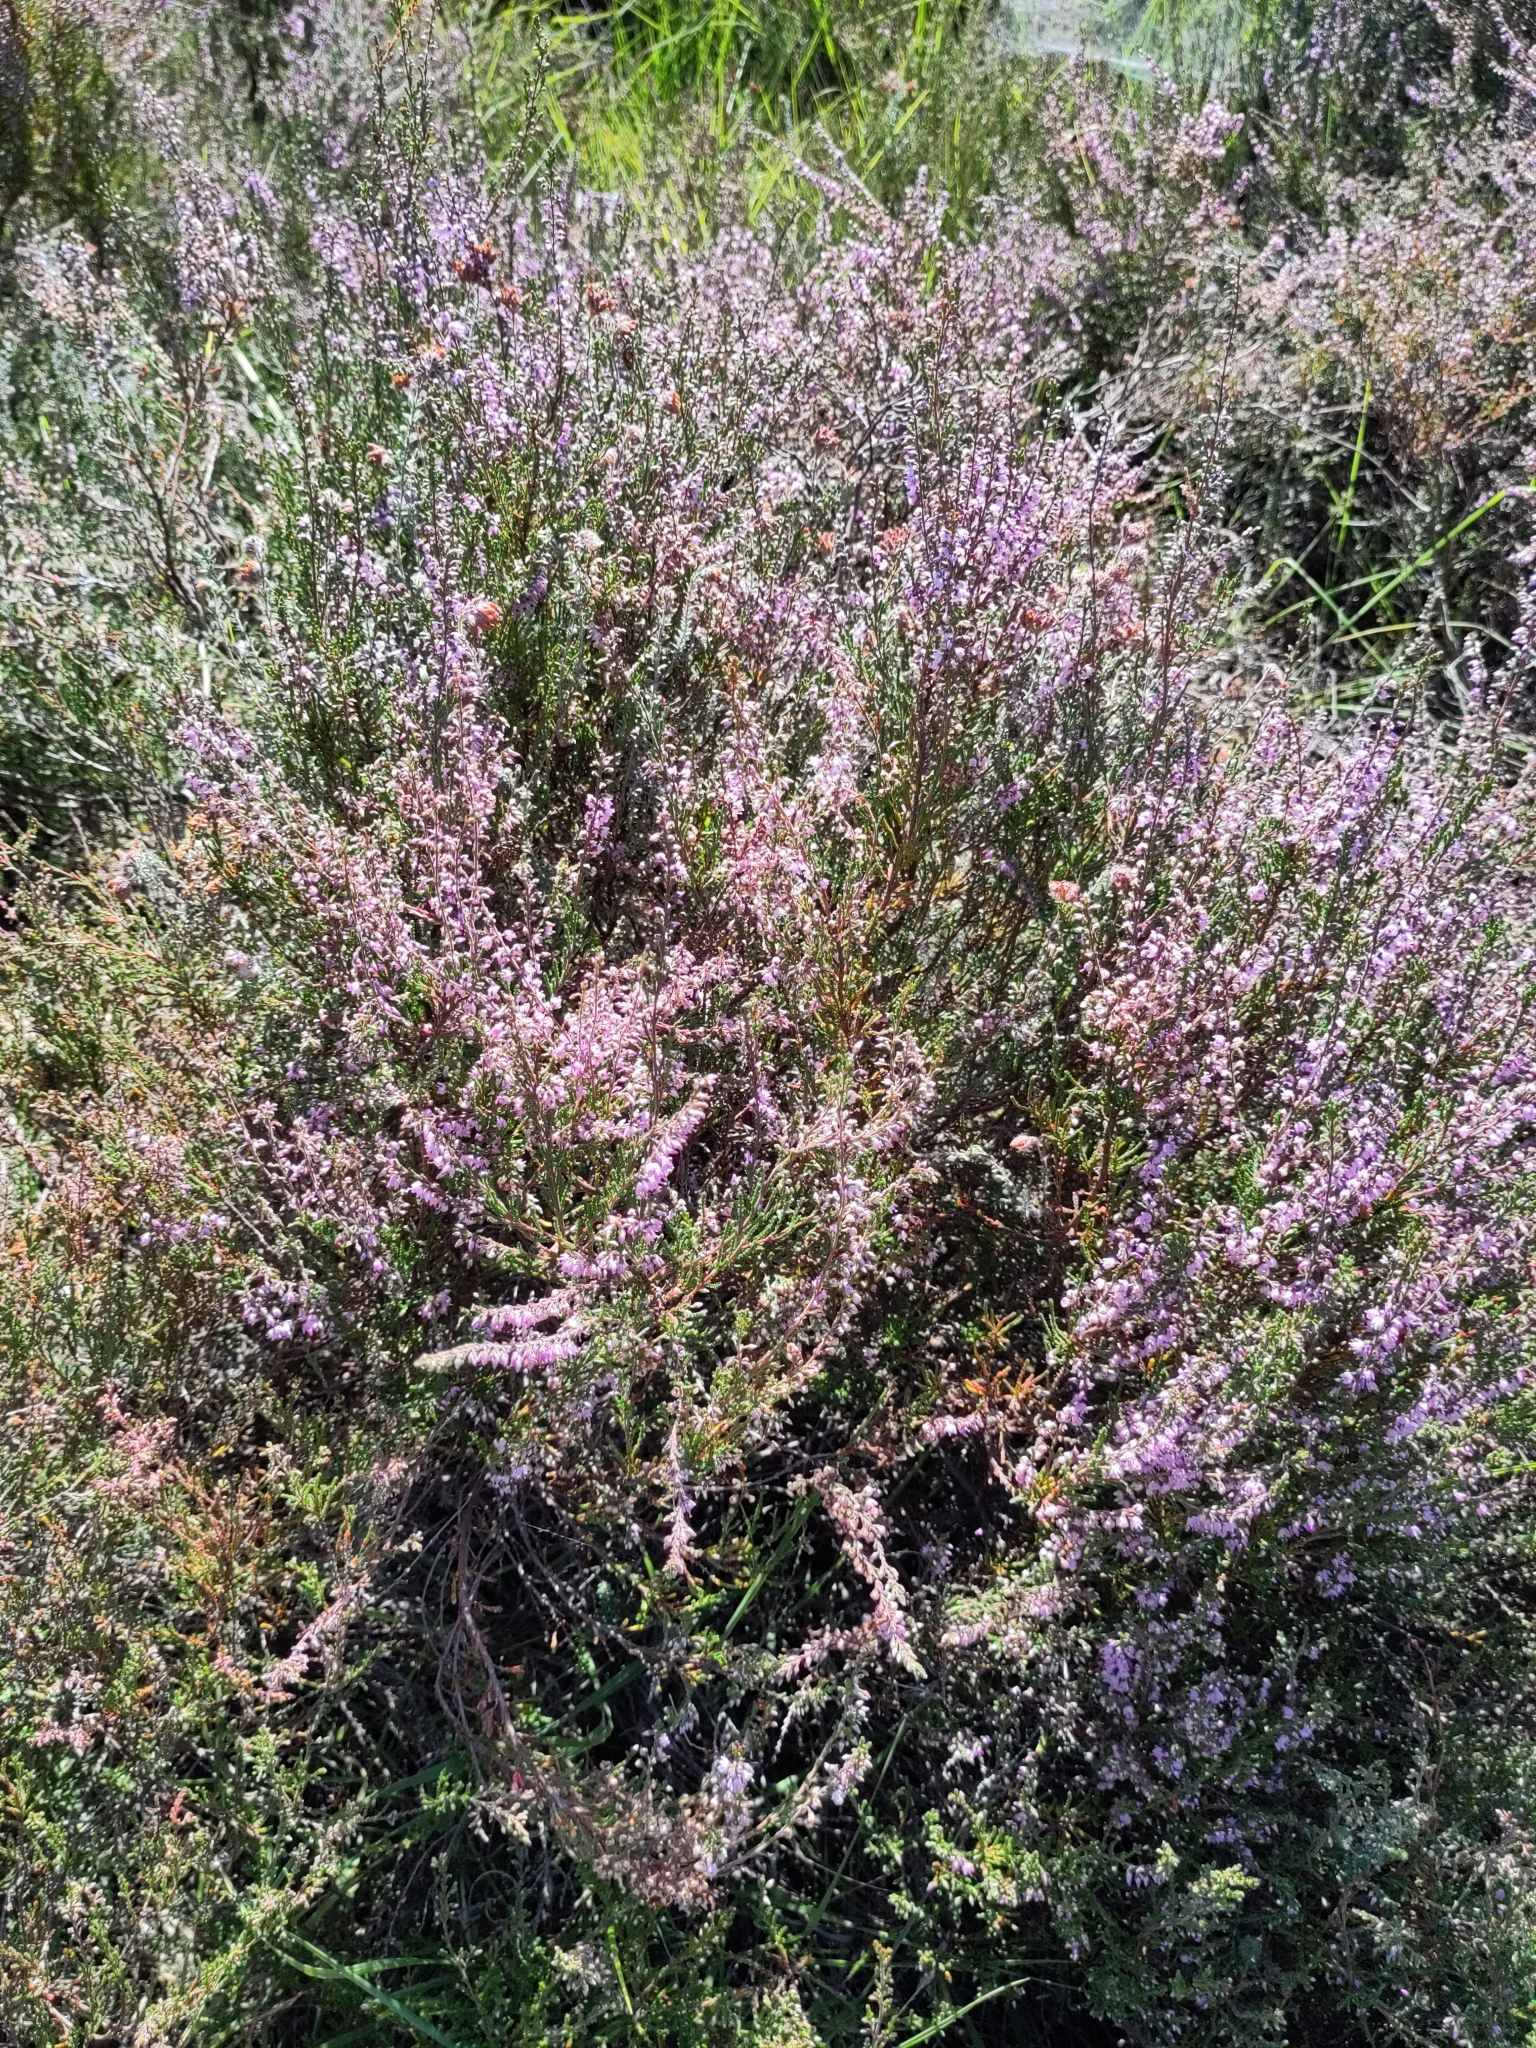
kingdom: Plantae
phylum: Tracheophyta
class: Magnoliopsida
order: Ericales
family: Ericaceae
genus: Calluna
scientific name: Calluna vulgaris
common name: Heather
